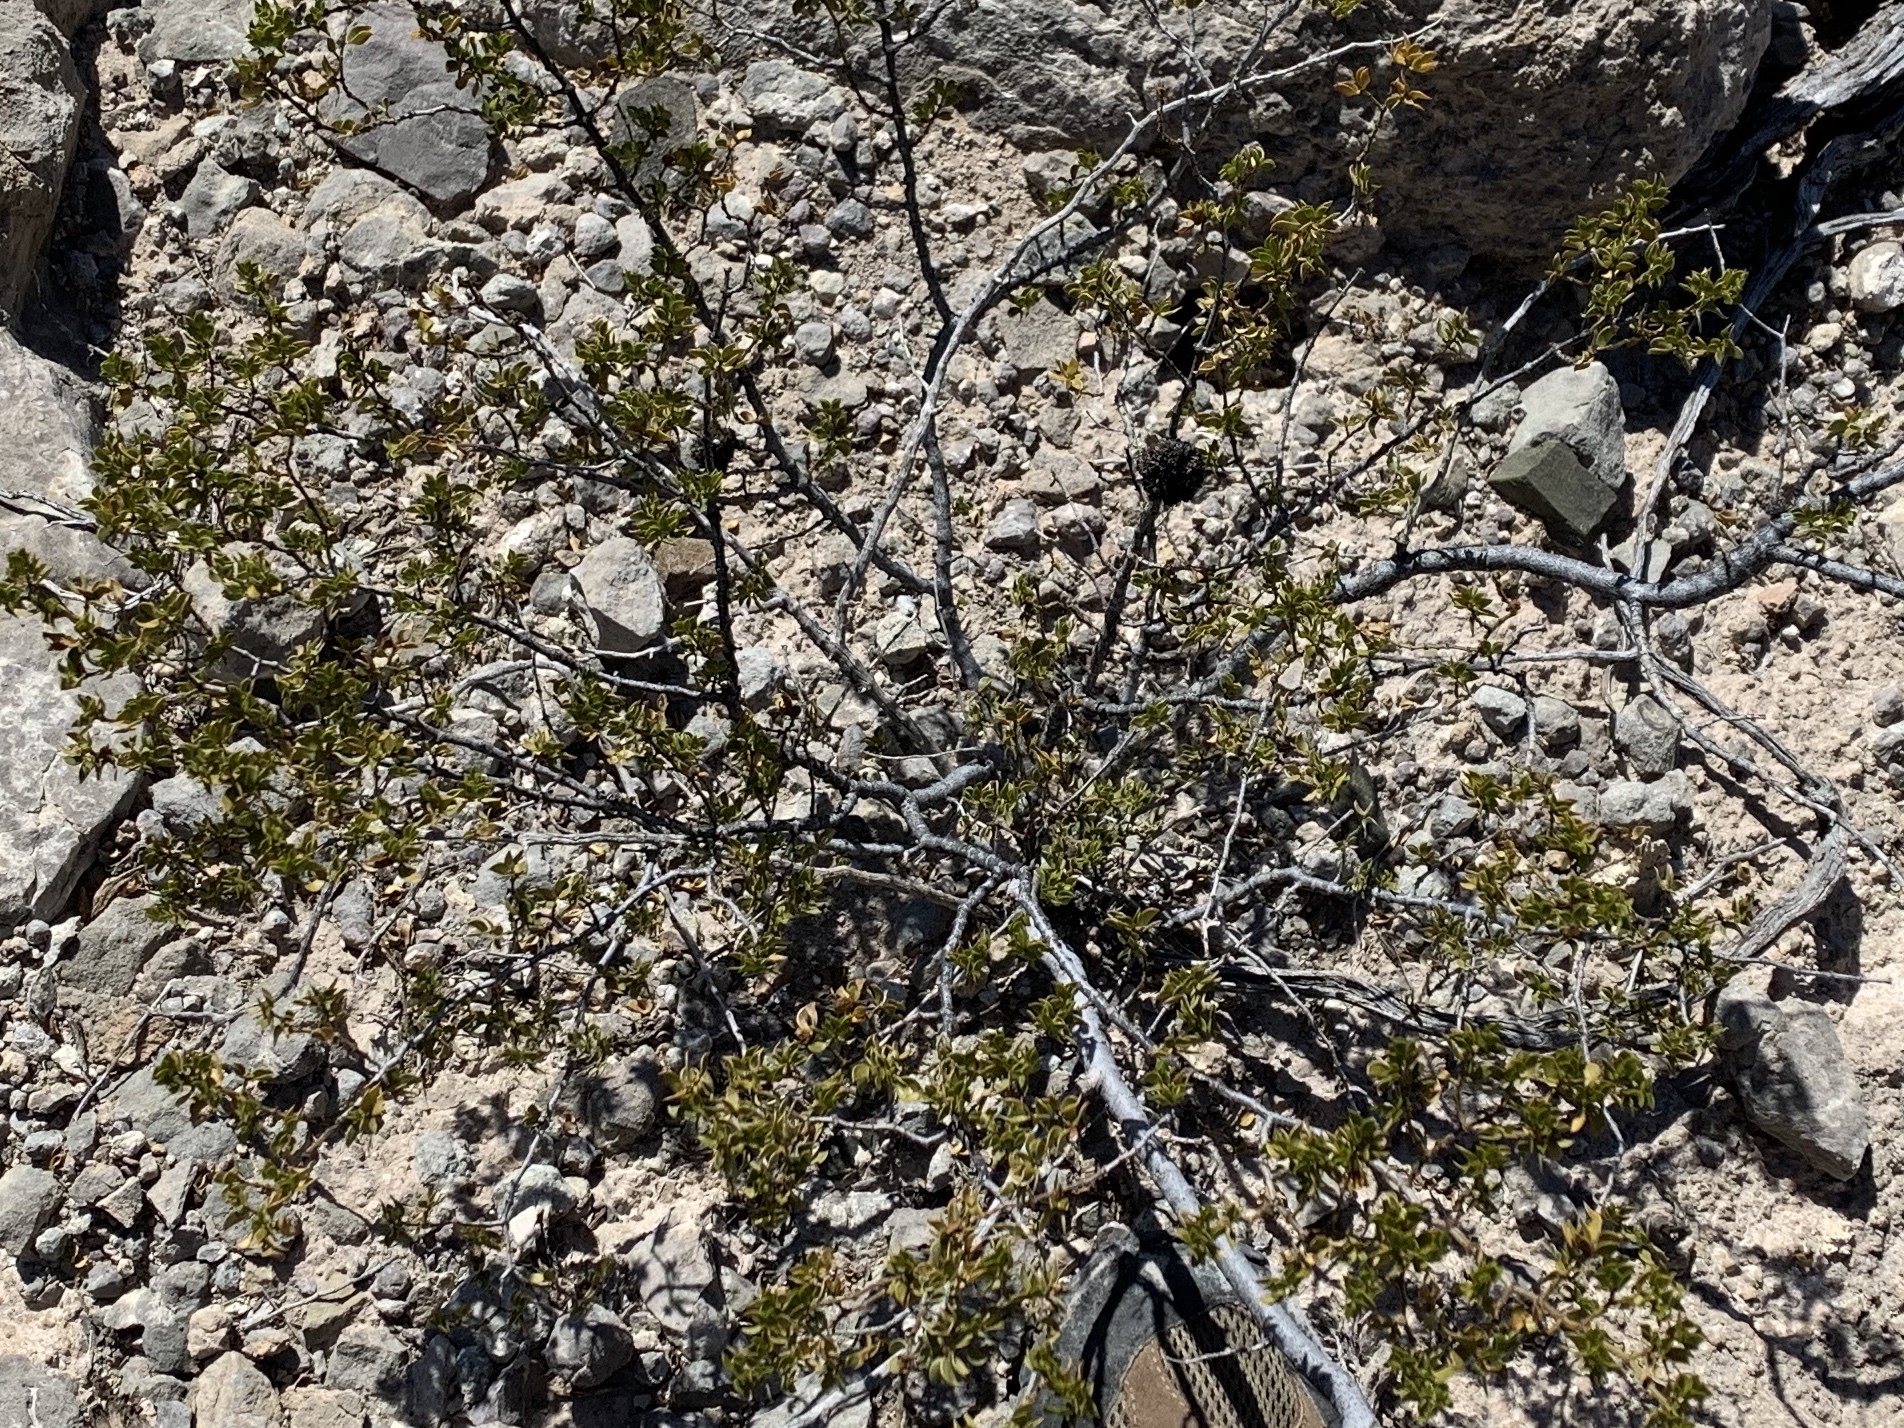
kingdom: Plantae
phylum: Tracheophyta
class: Magnoliopsida
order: Zygophyllales
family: Zygophyllaceae
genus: Larrea
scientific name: Larrea tridentata
